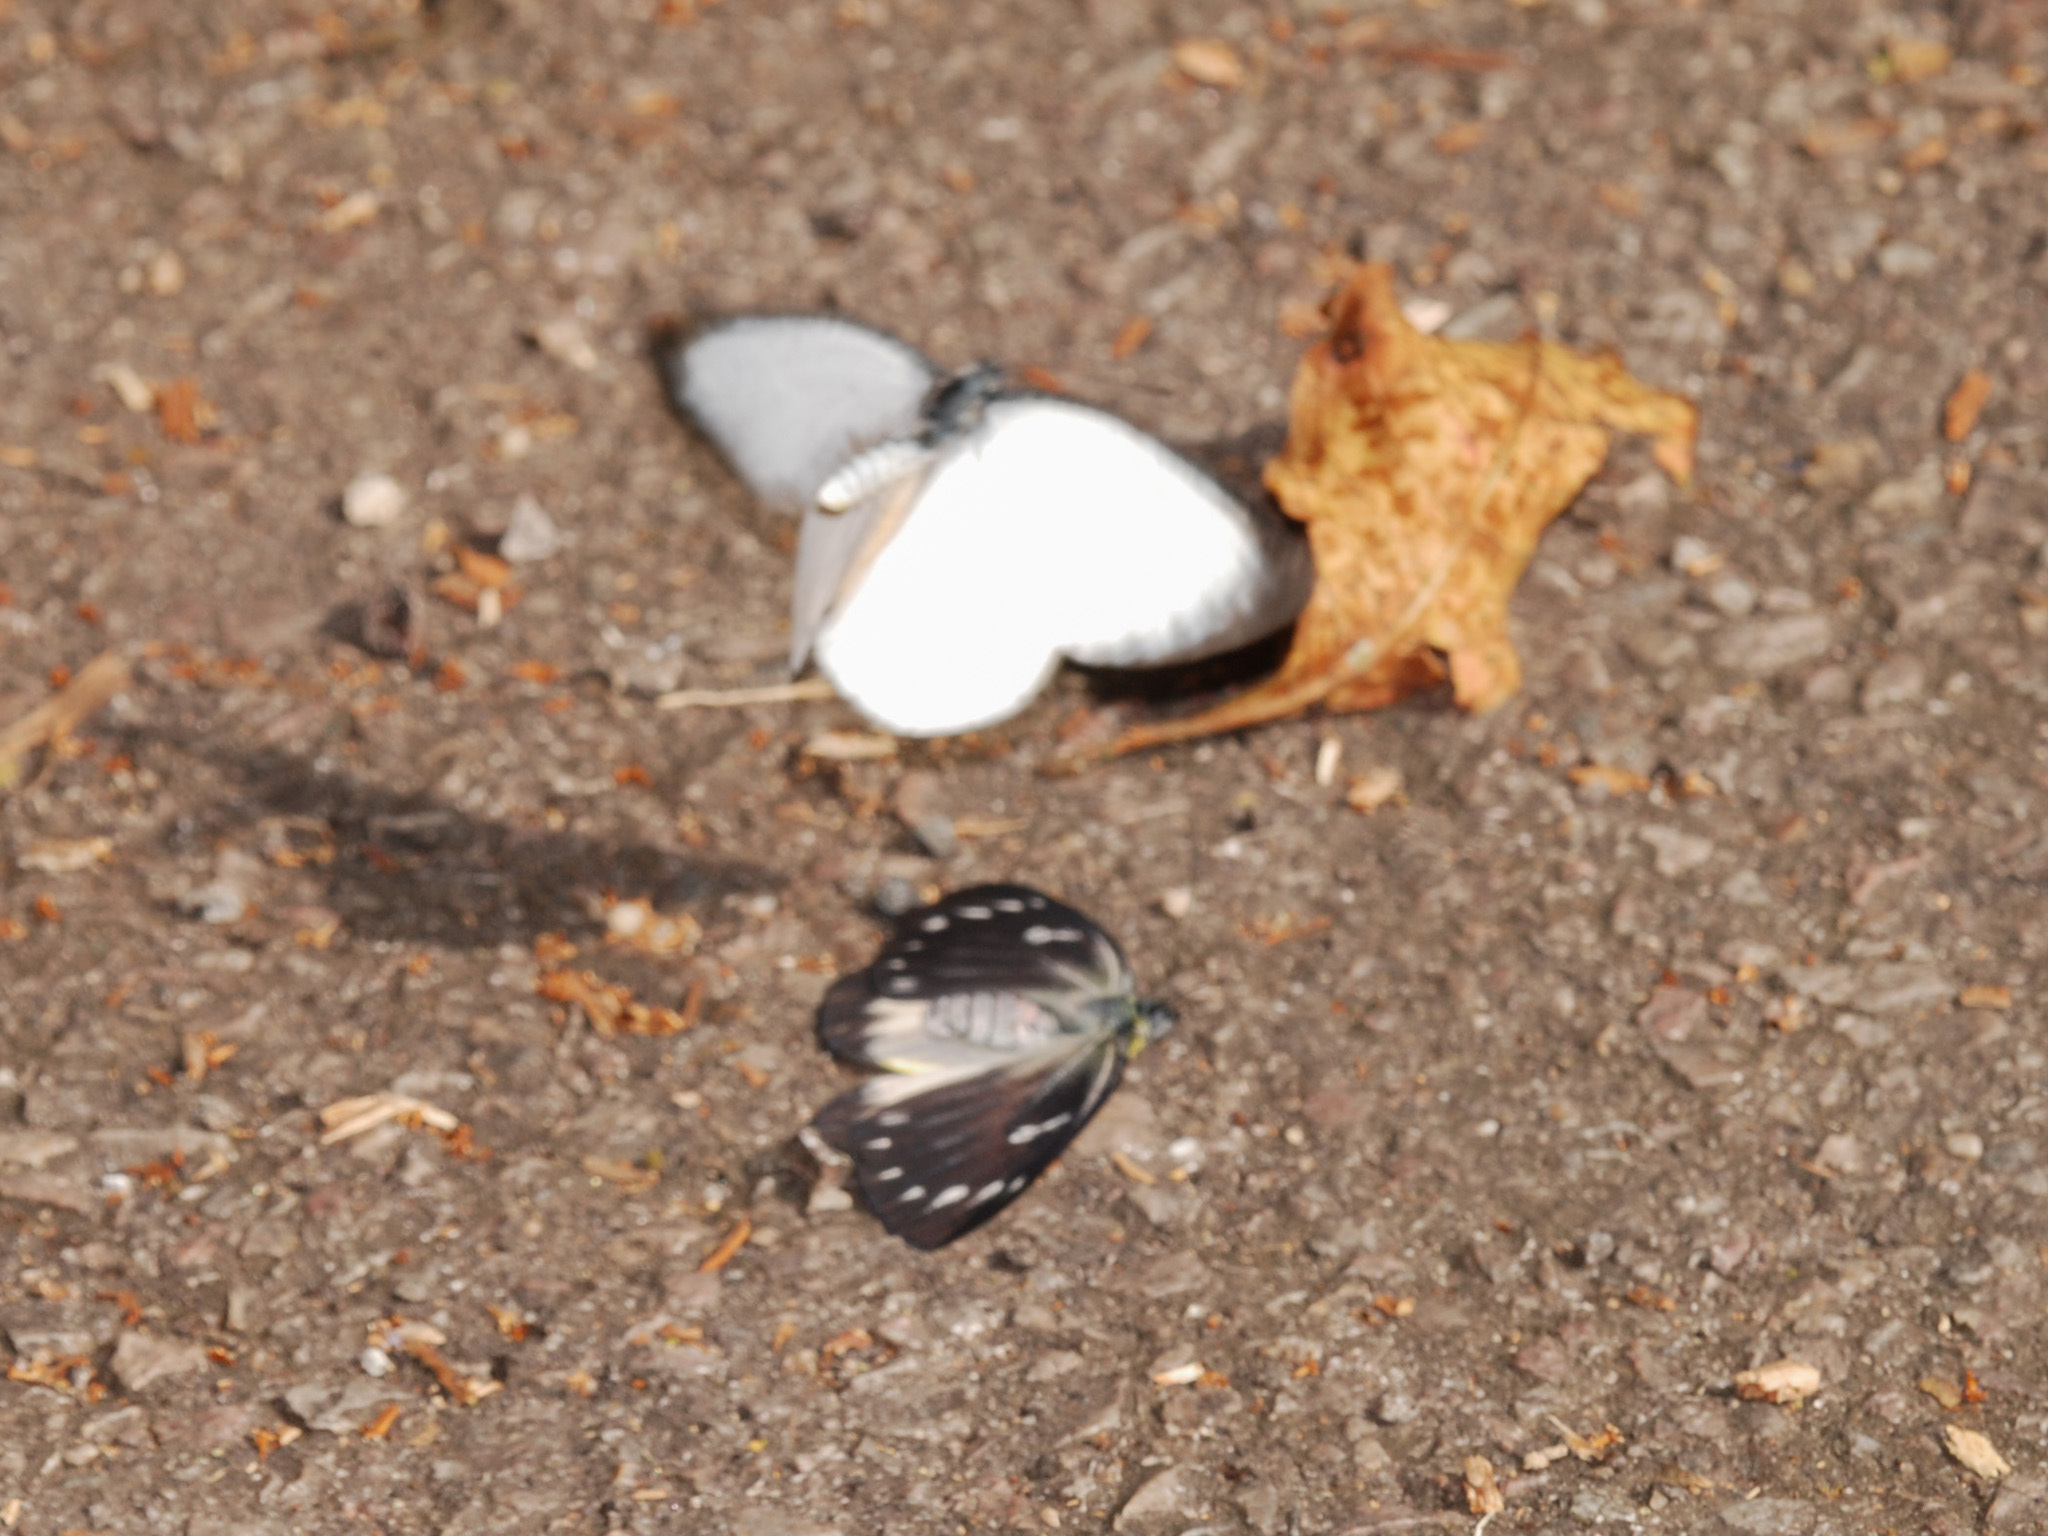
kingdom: Animalia
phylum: Arthropoda
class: Insecta
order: Lepidoptera
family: Pieridae
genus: Delias
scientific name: Delias descombesi
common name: Red-spot jezebel
